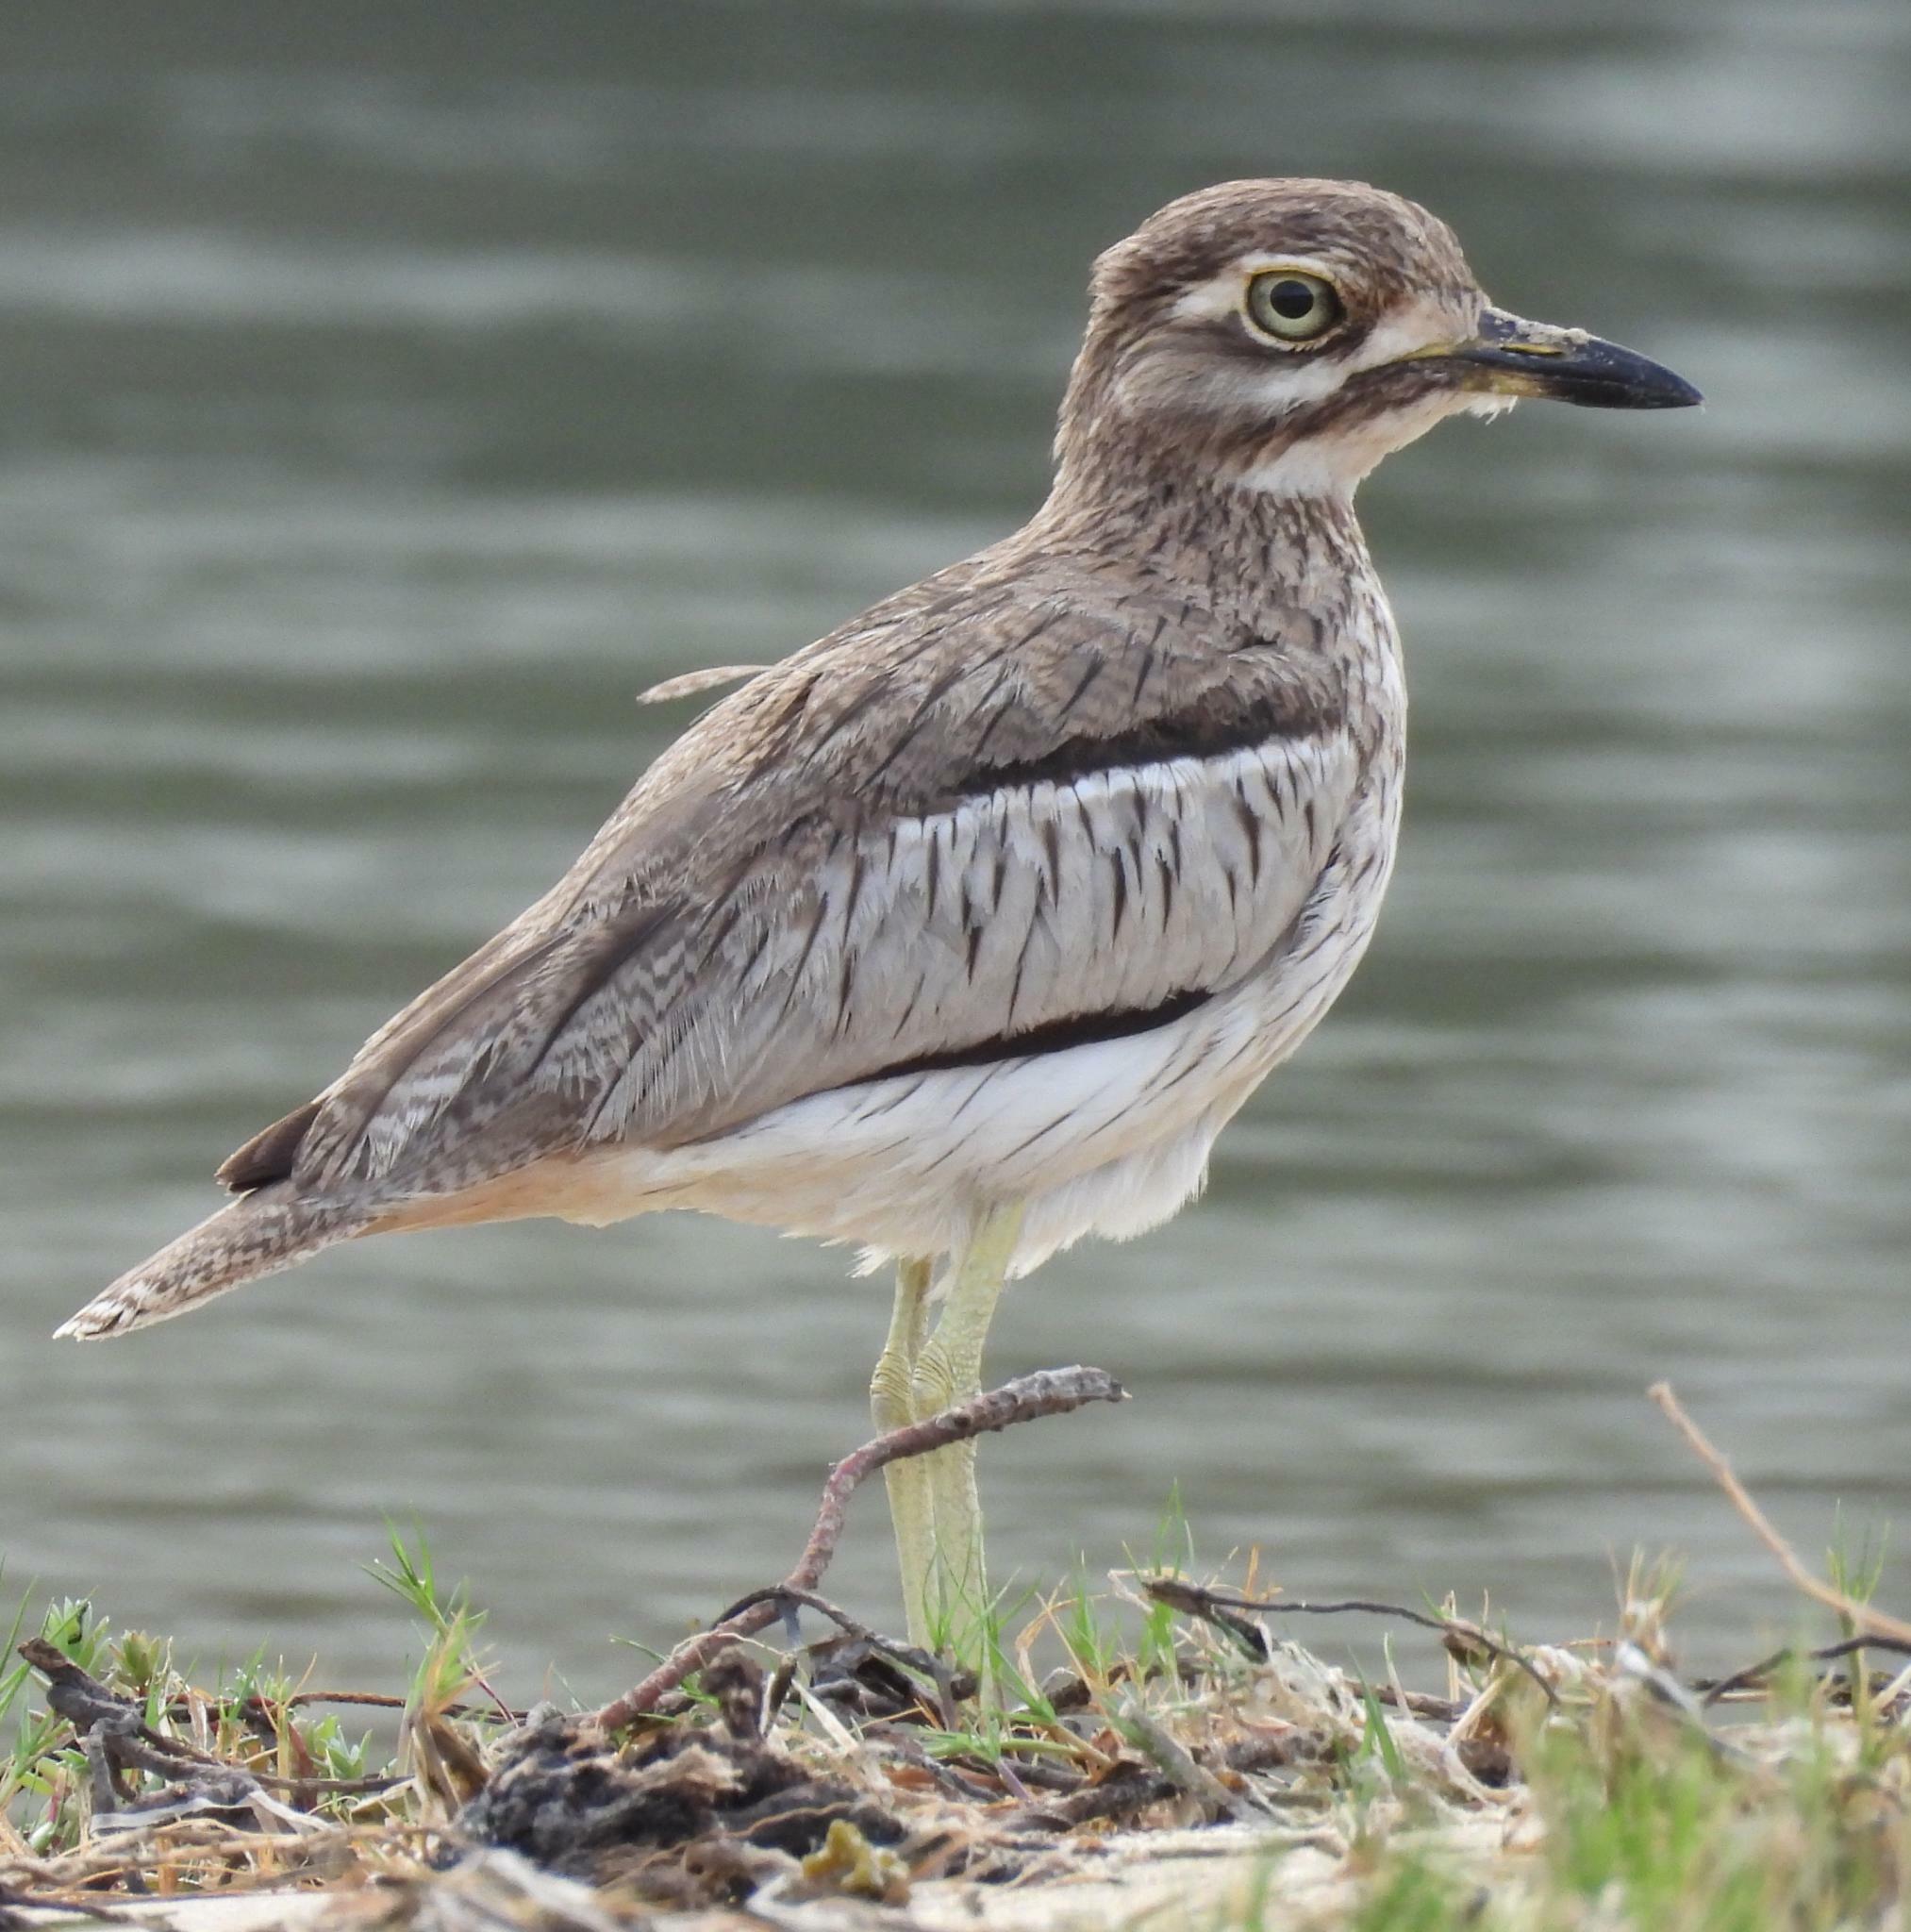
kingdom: Animalia
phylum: Chordata
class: Aves
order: Charadriiformes
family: Burhinidae
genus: Burhinus
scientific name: Burhinus vermiculatus
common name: Water thick-knee
